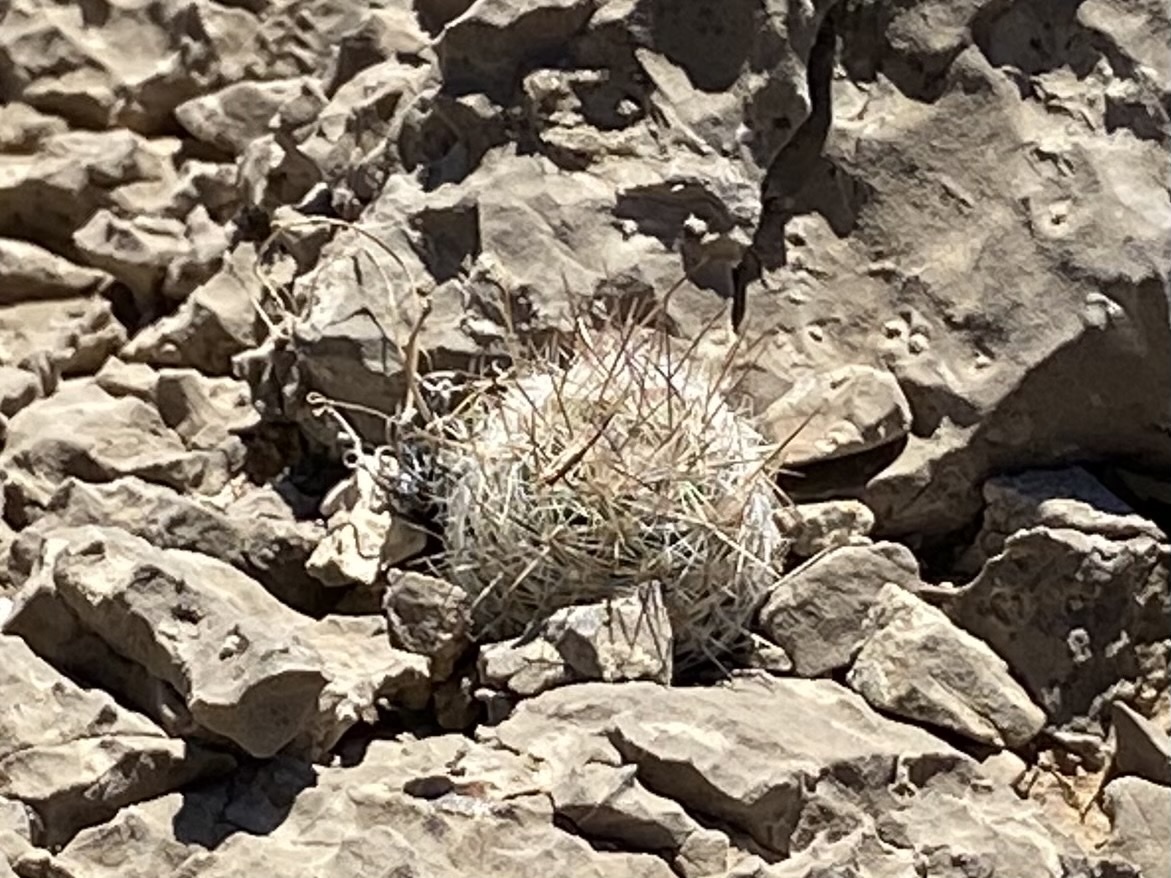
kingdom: Plantae
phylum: Tracheophyta
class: Magnoliopsida
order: Caryophyllales
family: Cactaceae
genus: Pelecyphora
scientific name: Pelecyphora tuberculosa
